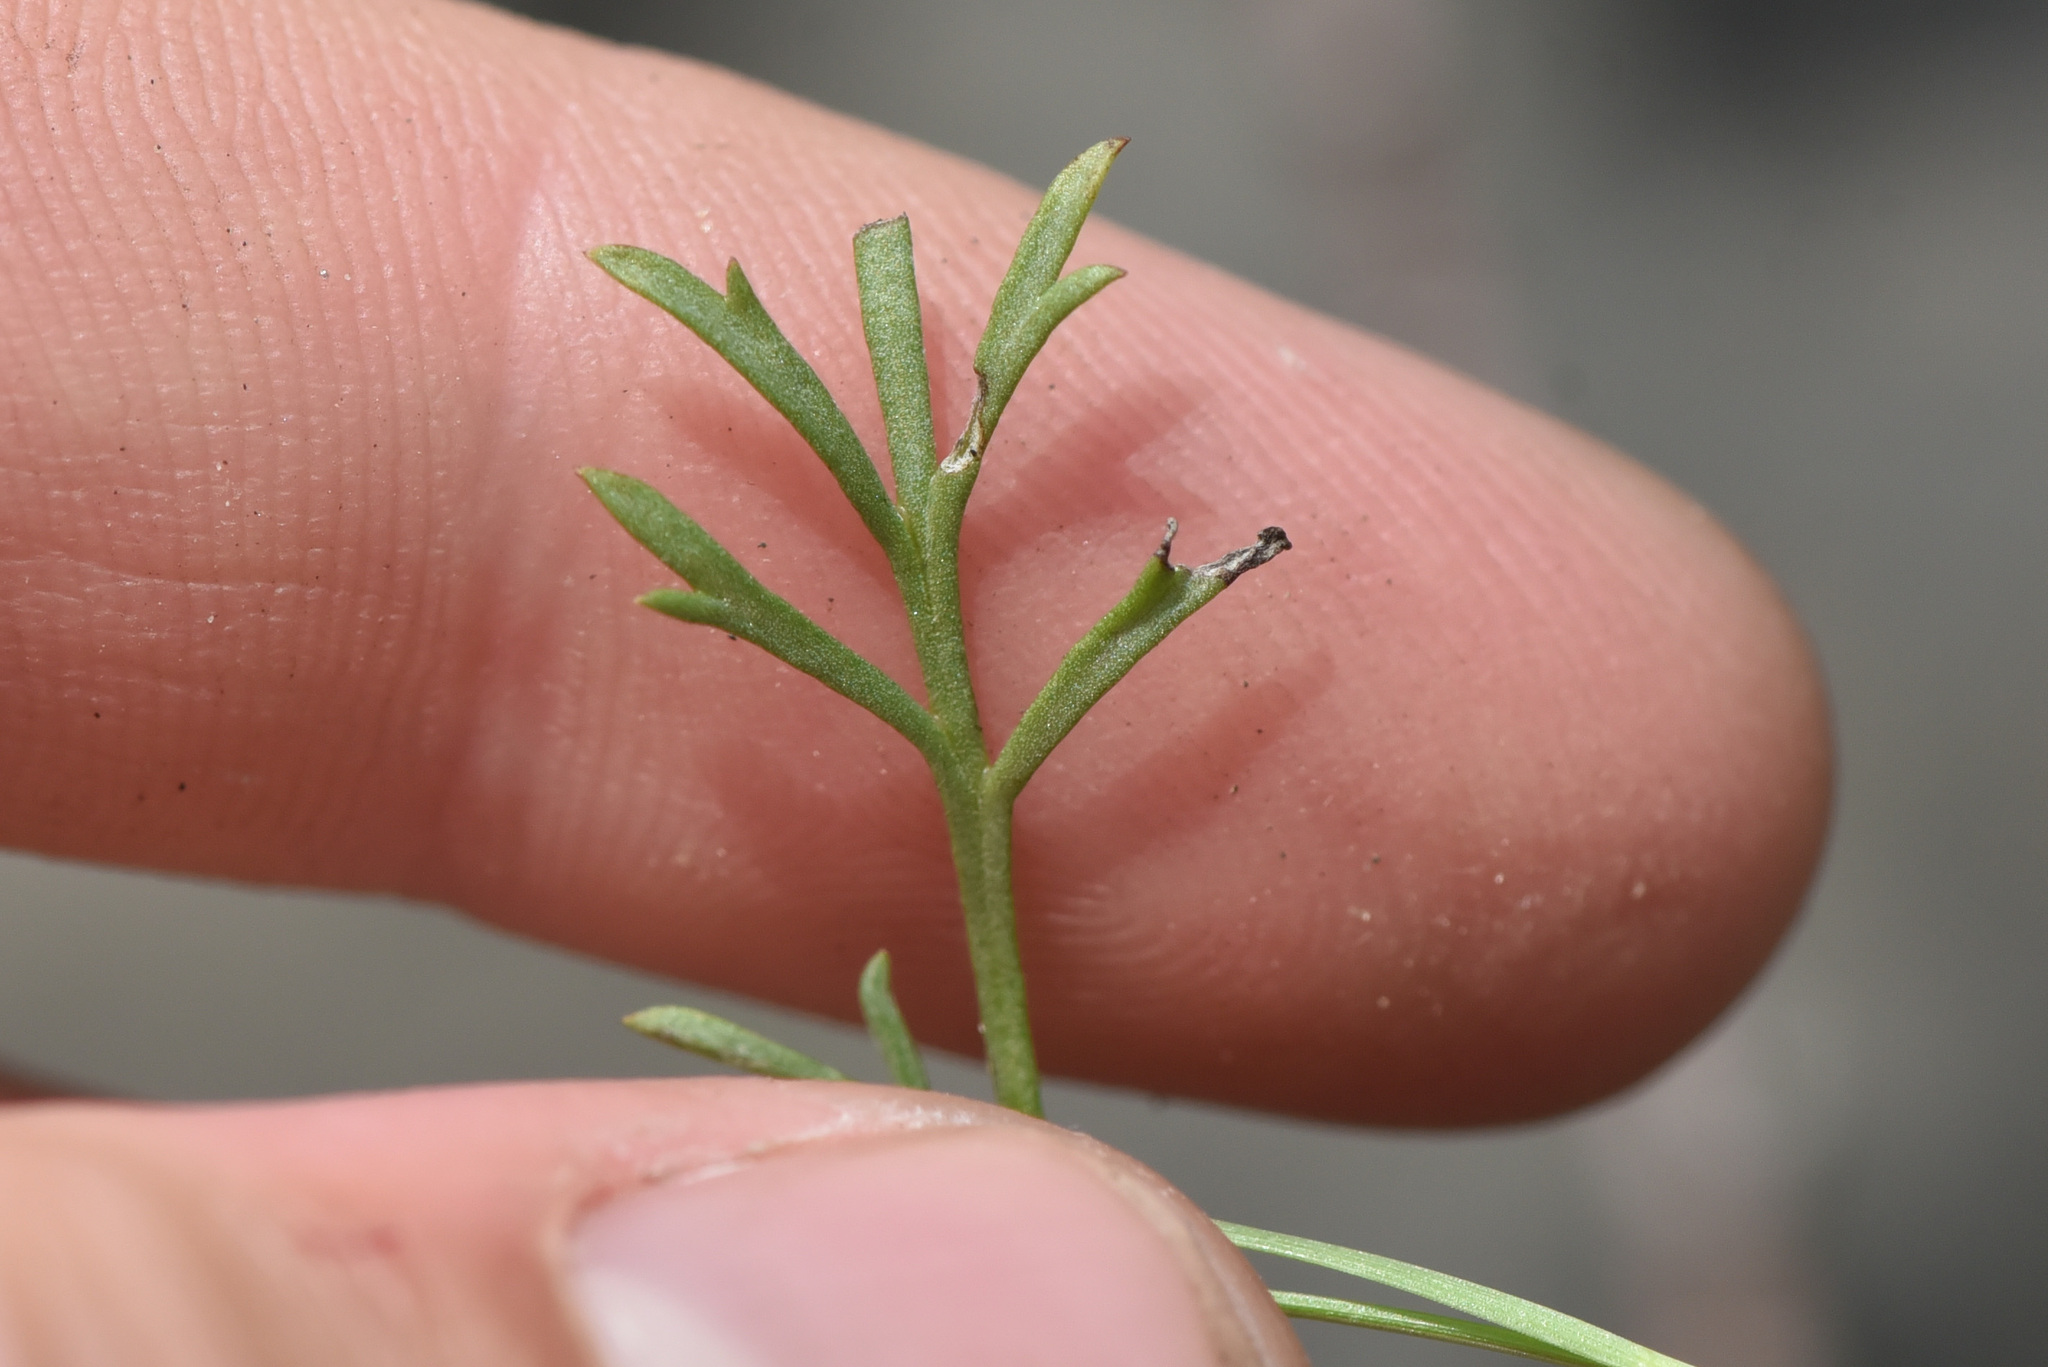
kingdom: Plantae
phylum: Tracheophyta
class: Magnoliopsida
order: Asterales
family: Asteraceae
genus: Erigeron
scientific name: Erigeron compositus
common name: Dwarf mountain fleabane
